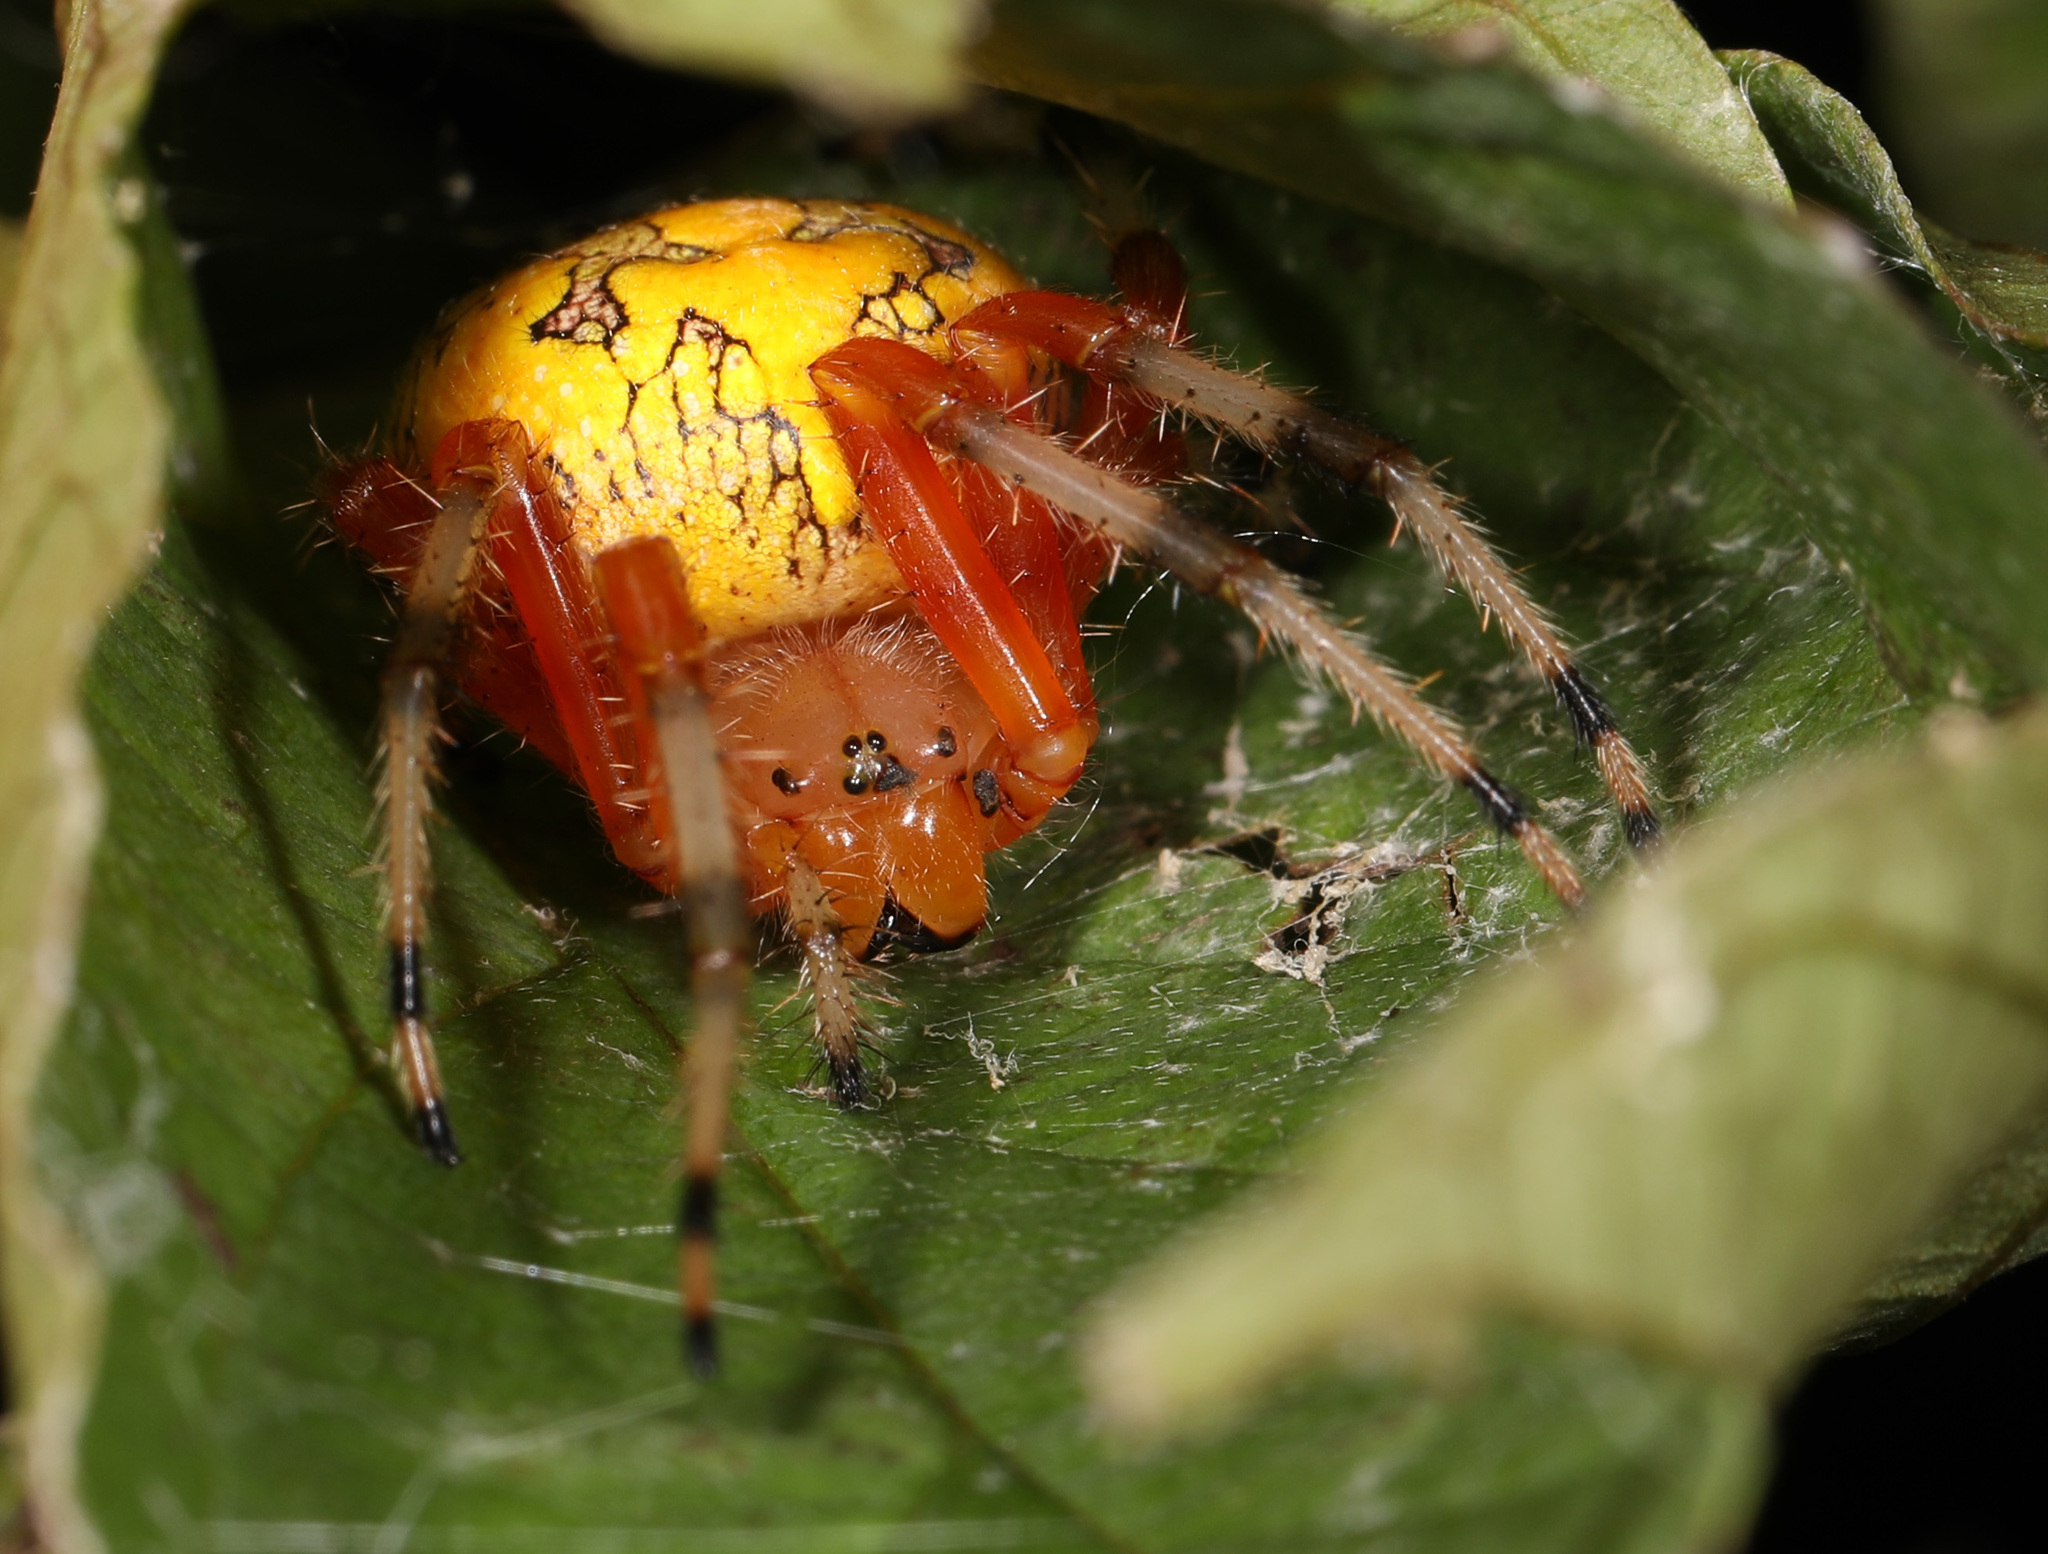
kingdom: Animalia
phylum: Arthropoda
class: Arachnida
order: Araneae
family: Araneidae
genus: Araneus
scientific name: Araneus marmoreus
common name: Marbled orbweaver
